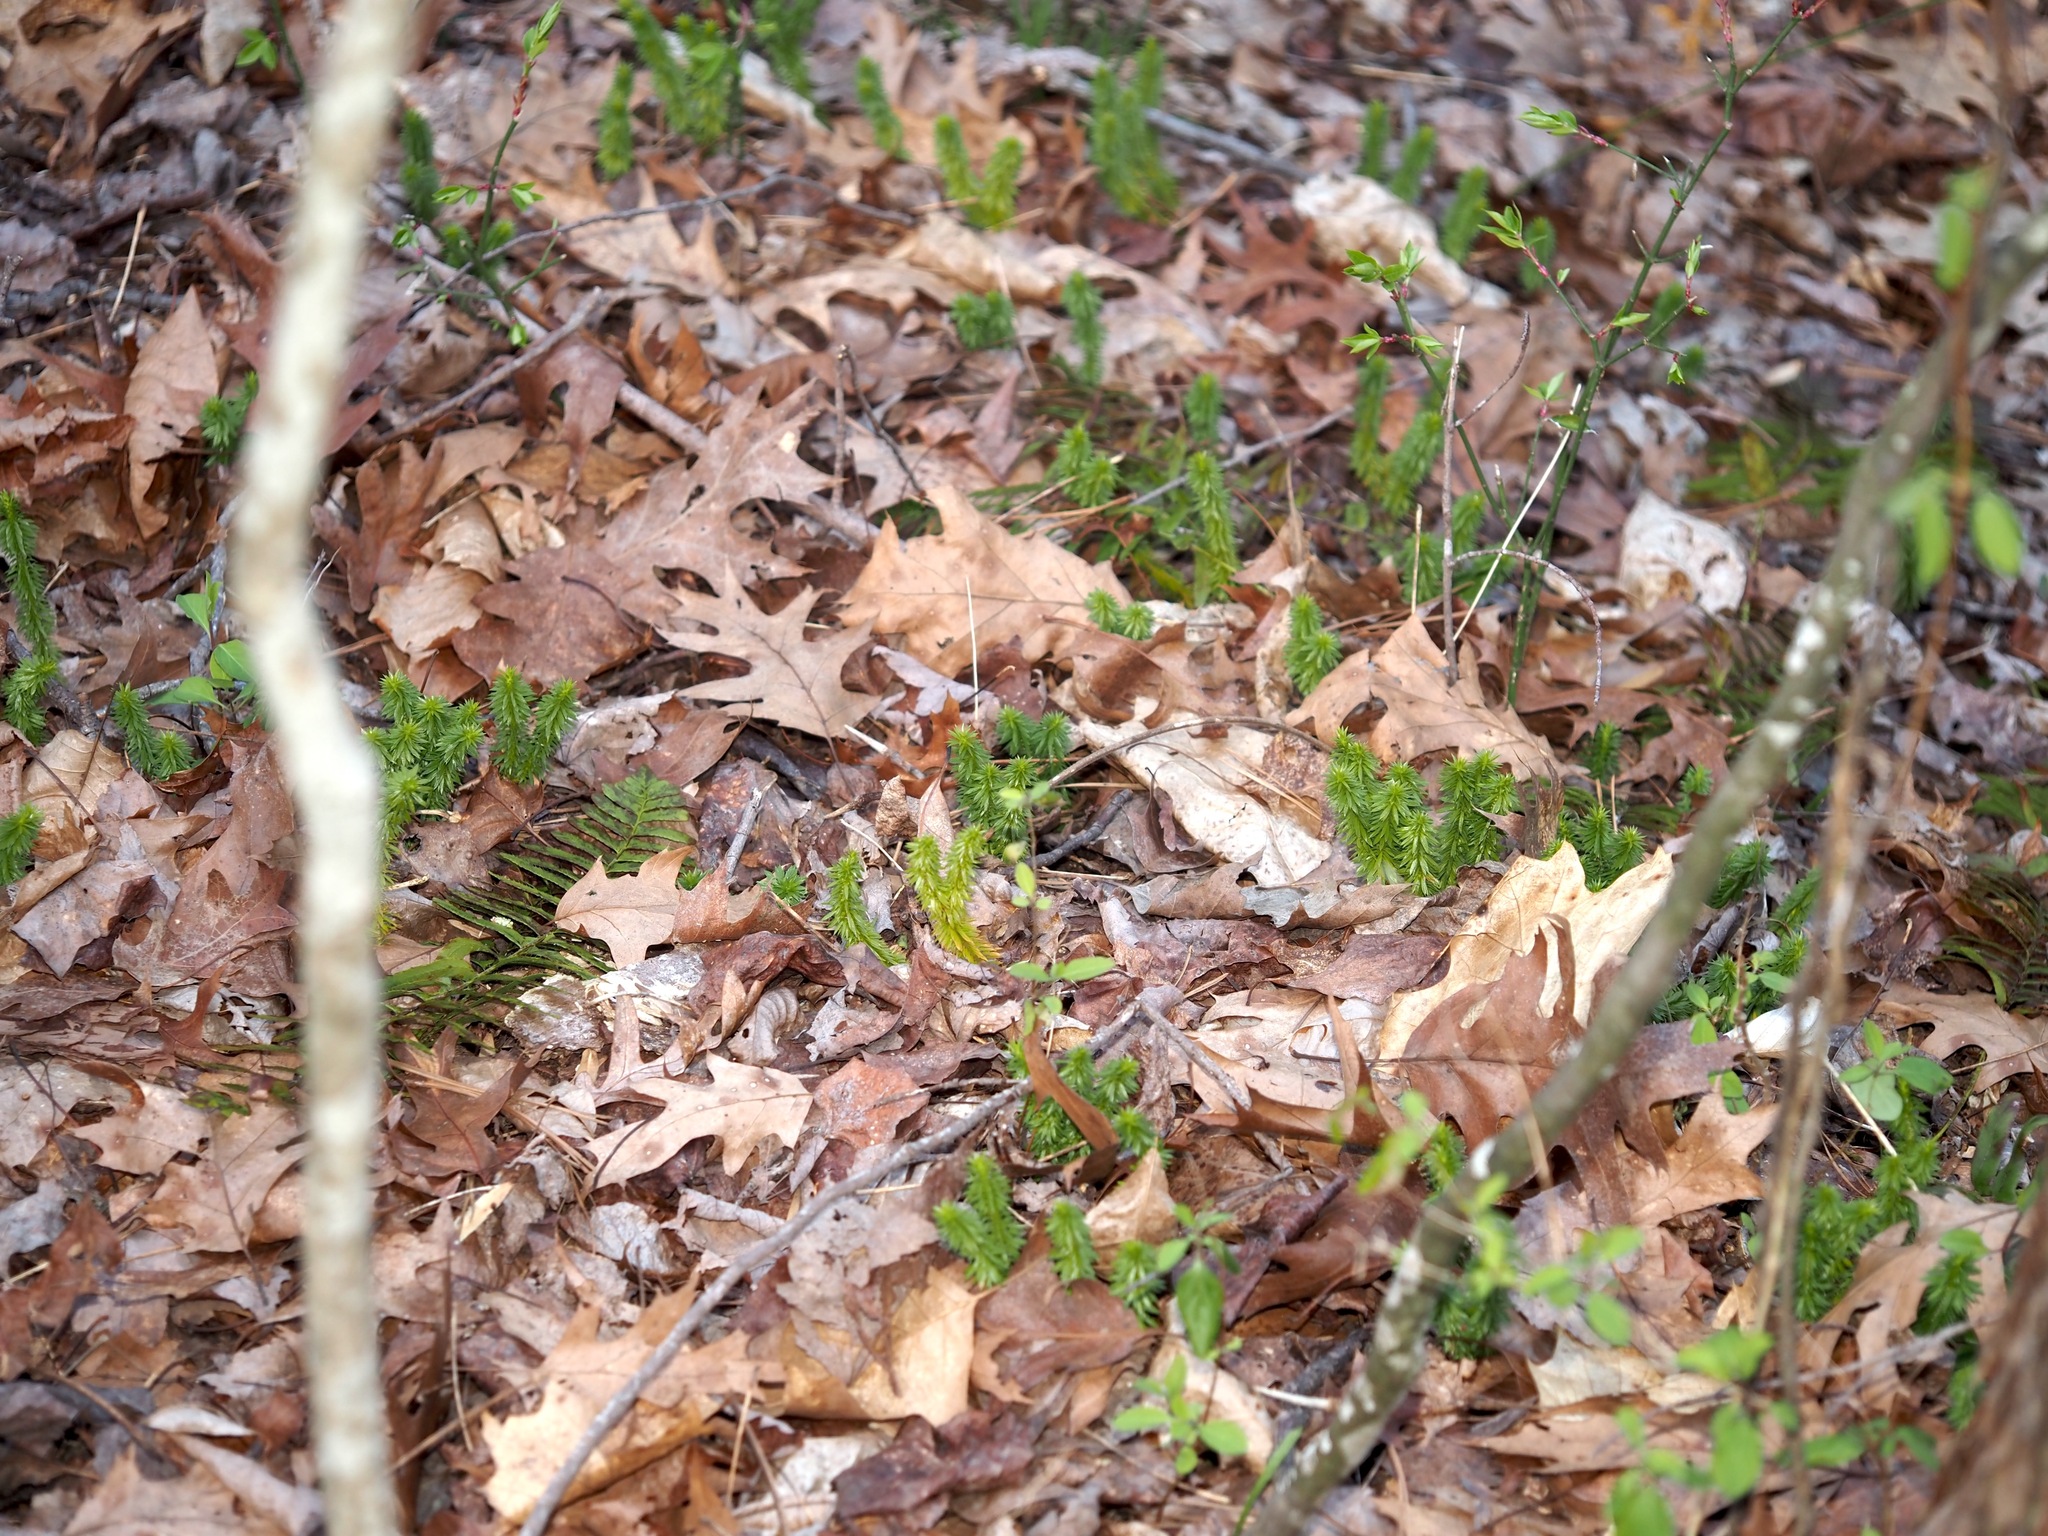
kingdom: Plantae
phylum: Tracheophyta
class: Lycopodiopsida
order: Lycopodiales
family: Lycopodiaceae
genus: Huperzia
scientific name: Huperzia lucidula
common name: Shining clubmoss
